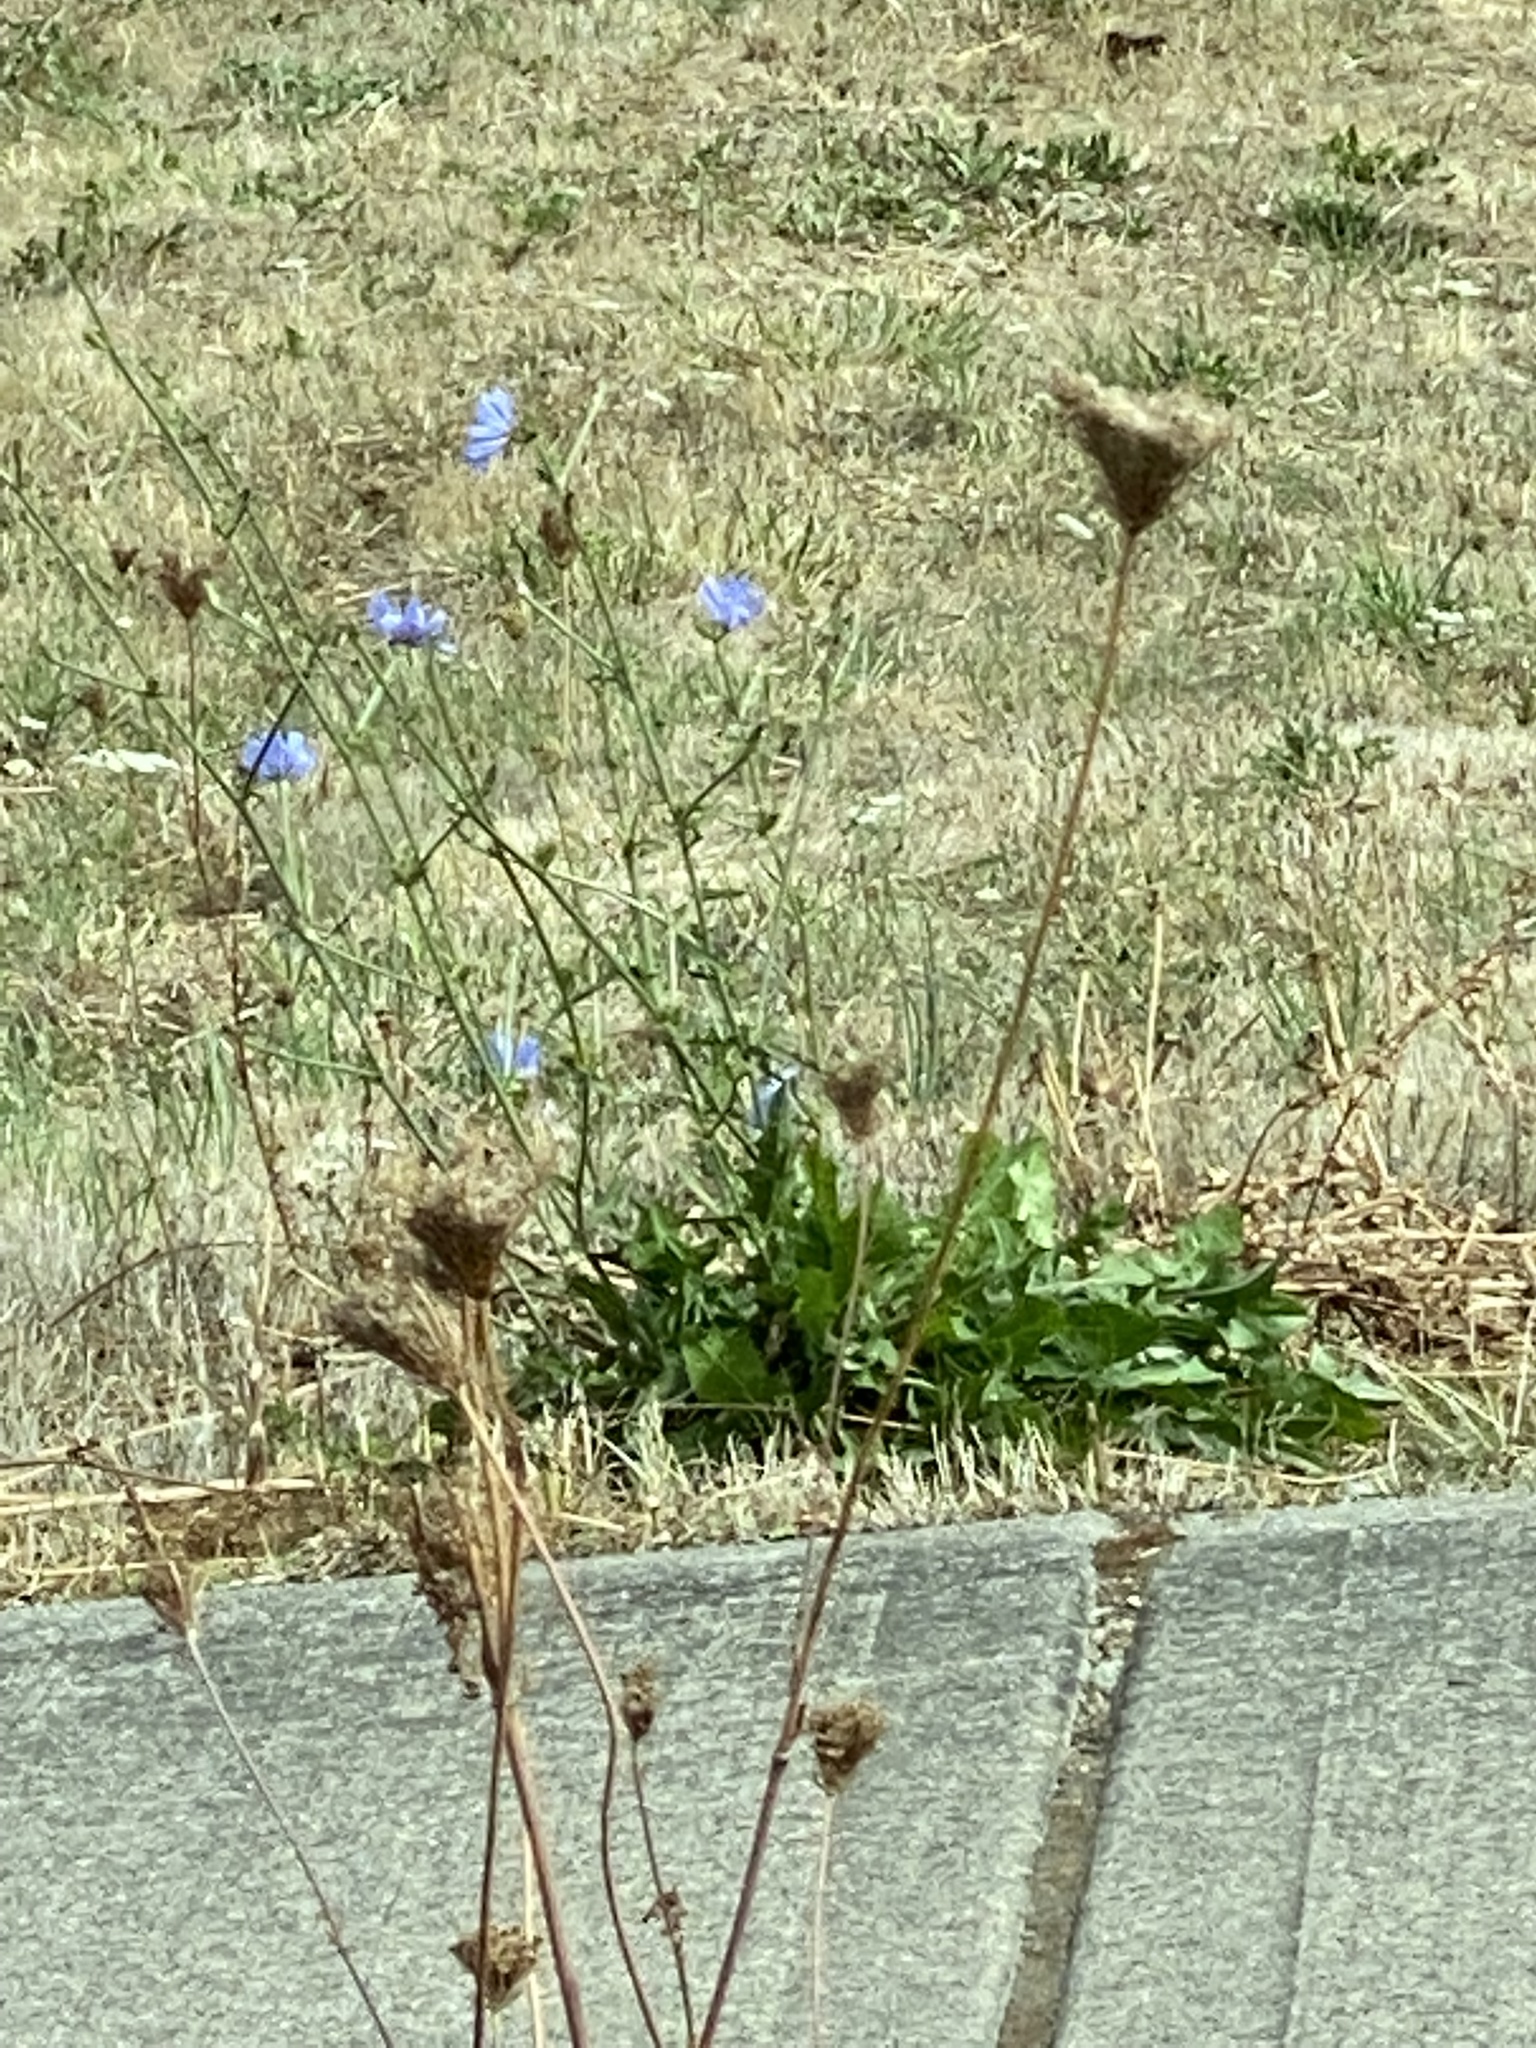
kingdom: Plantae
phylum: Tracheophyta
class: Magnoliopsida
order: Asterales
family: Asteraceae
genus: Cichorium
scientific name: Cichorium intybus
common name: Chicory
